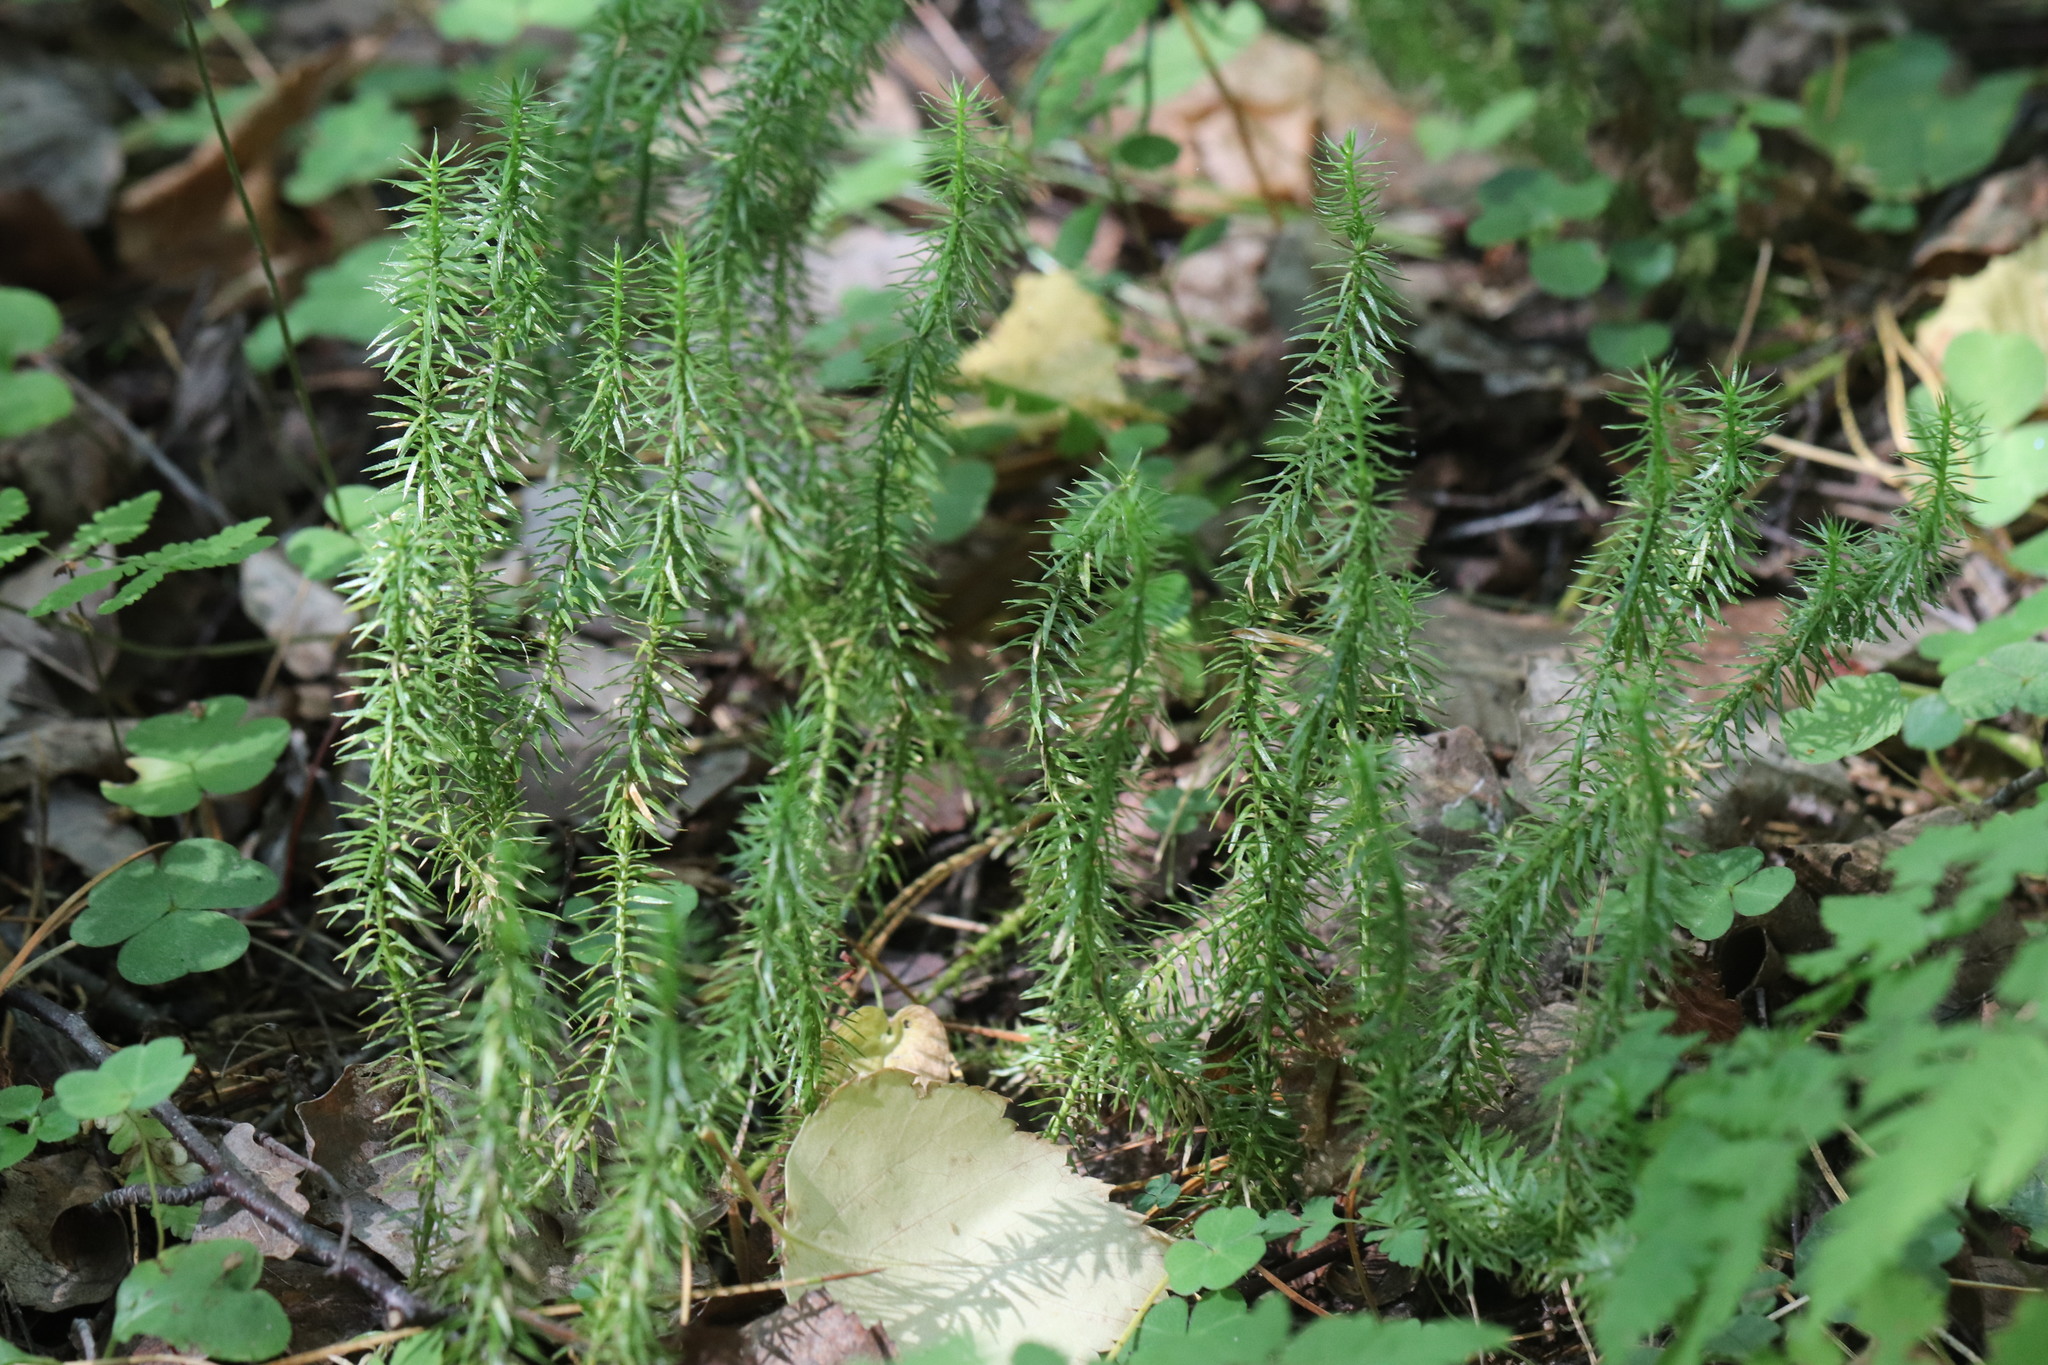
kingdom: Plantae
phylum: Tracheophyta
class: Lycopodiopsida
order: Lycopodiales
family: Lycopodiaceae
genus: Spinulum
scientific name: Spinulum annotinum
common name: Interrupted club-moss
